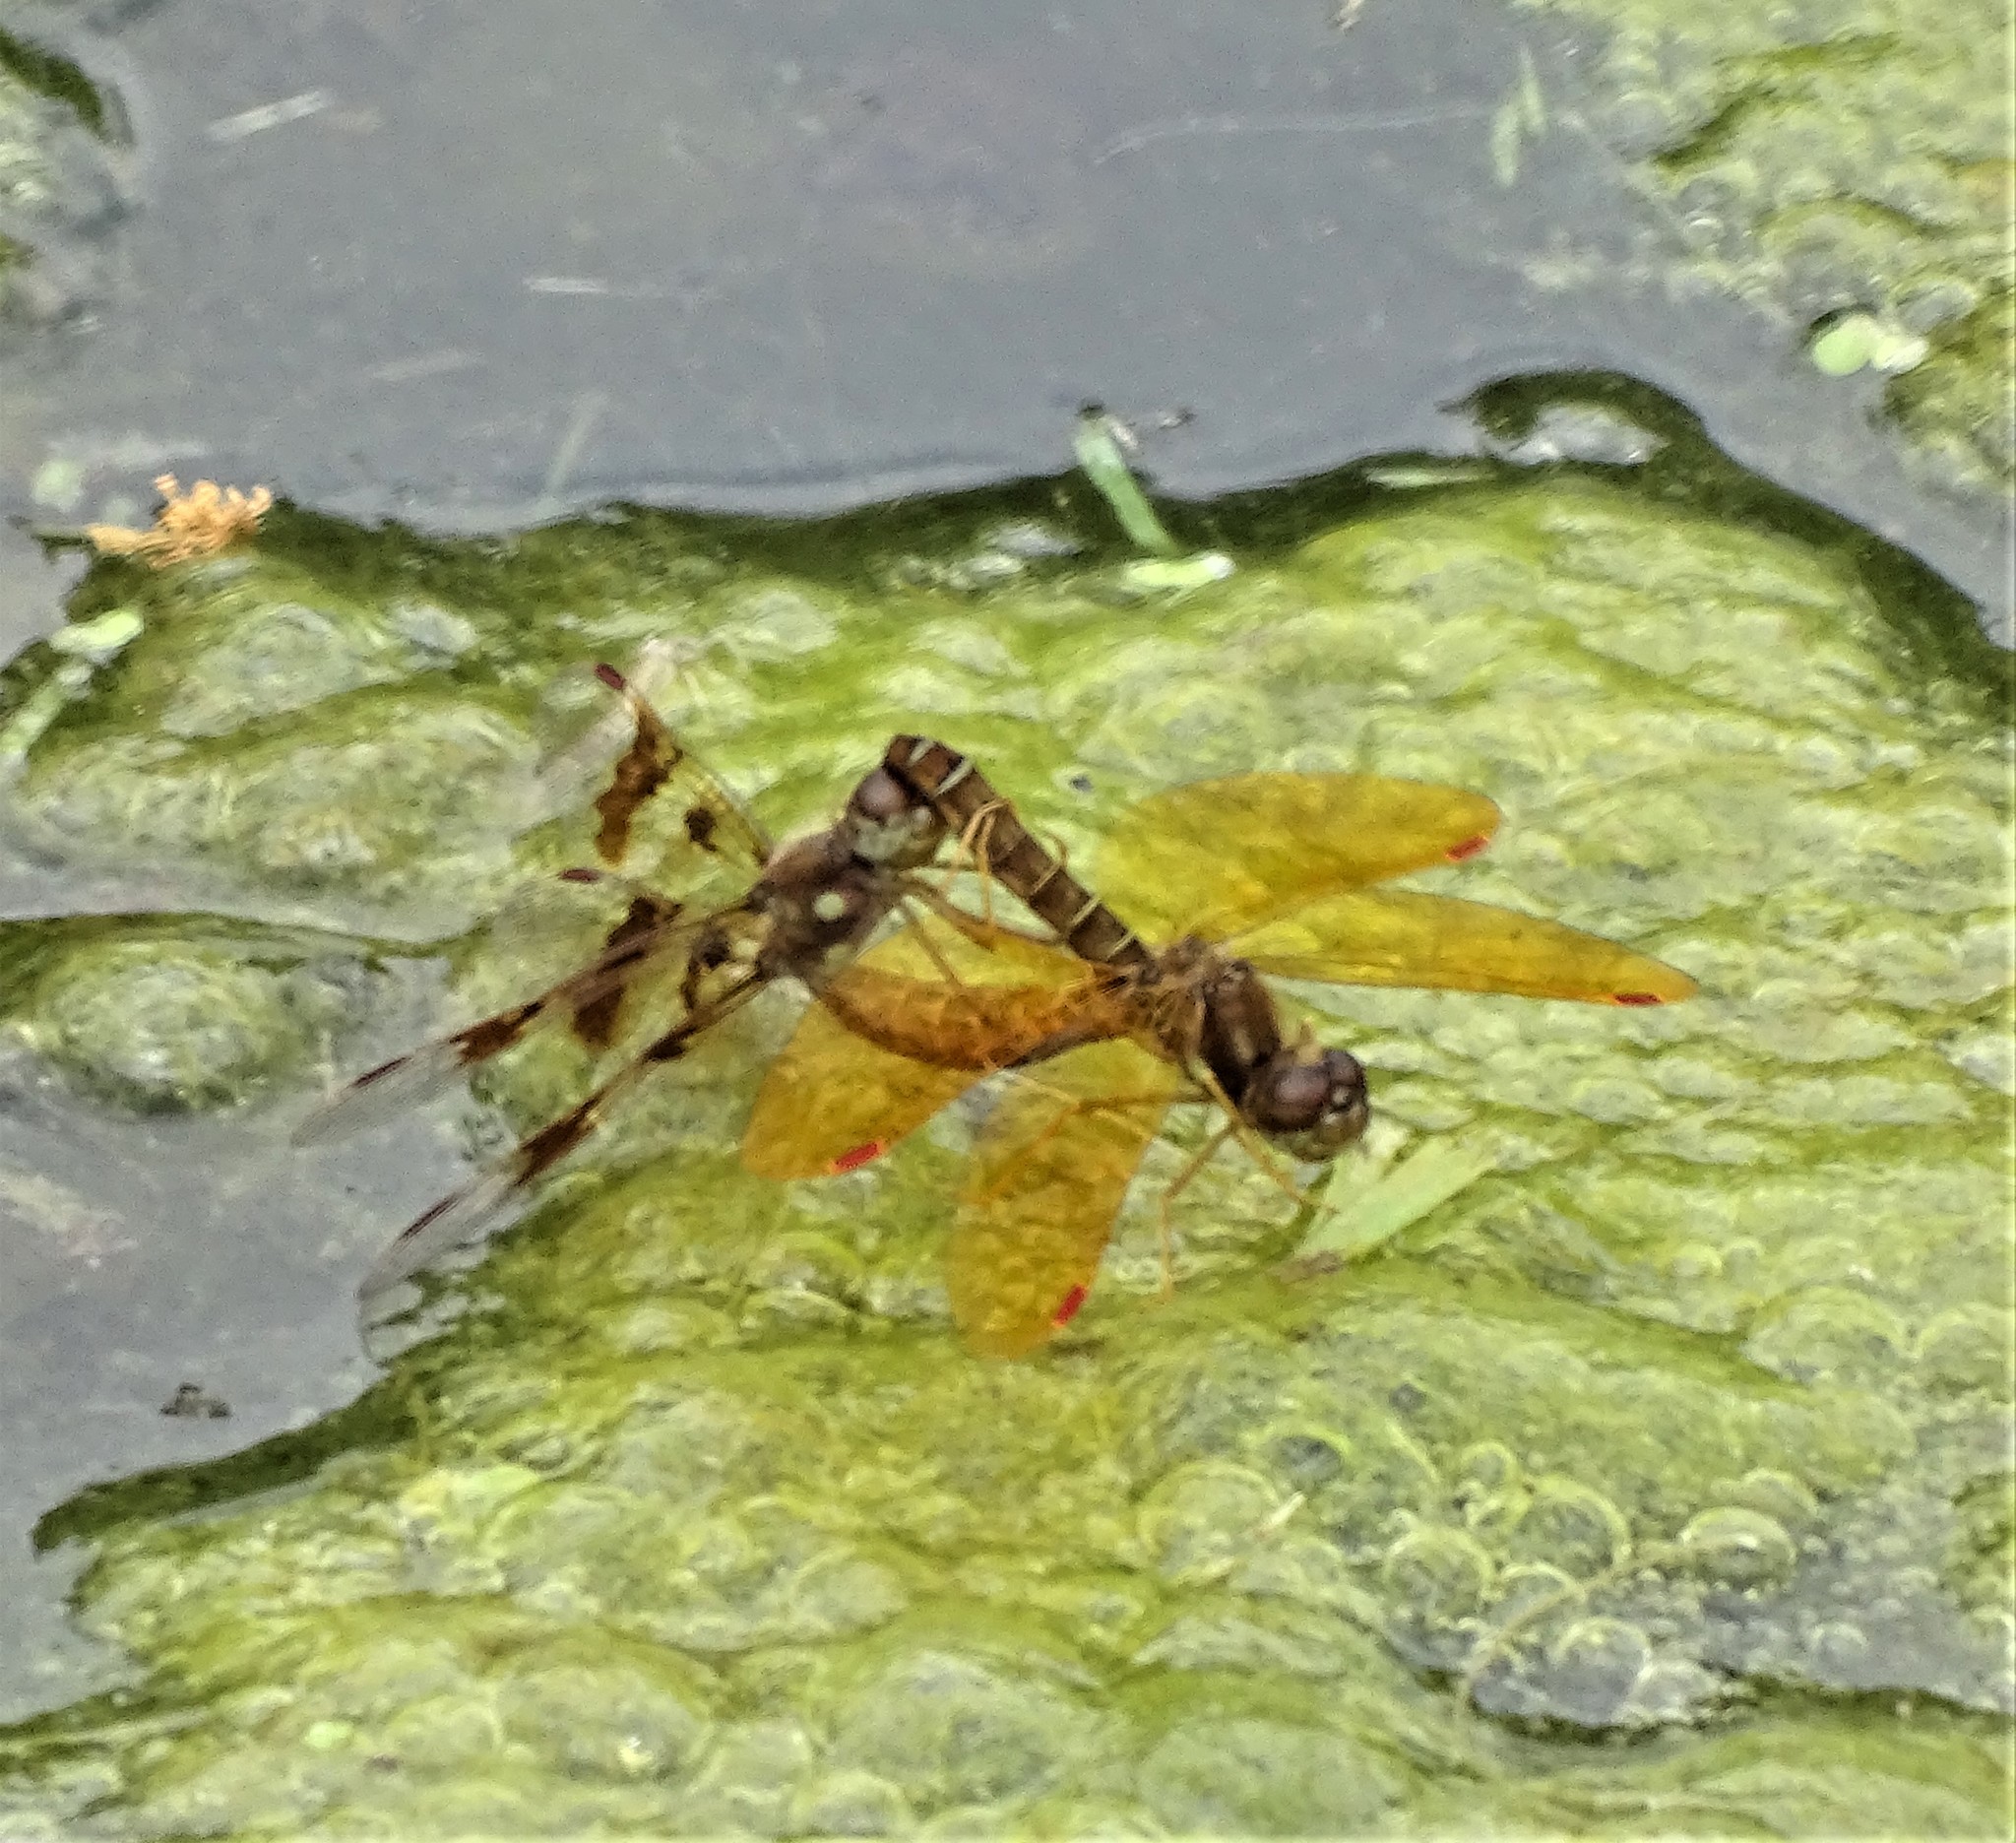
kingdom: Animalia
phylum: Arthropoda
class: Insecta
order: Odonata
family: Libellulidae
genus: Perithemis
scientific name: Perithemis tenera
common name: Eastern amberwing
